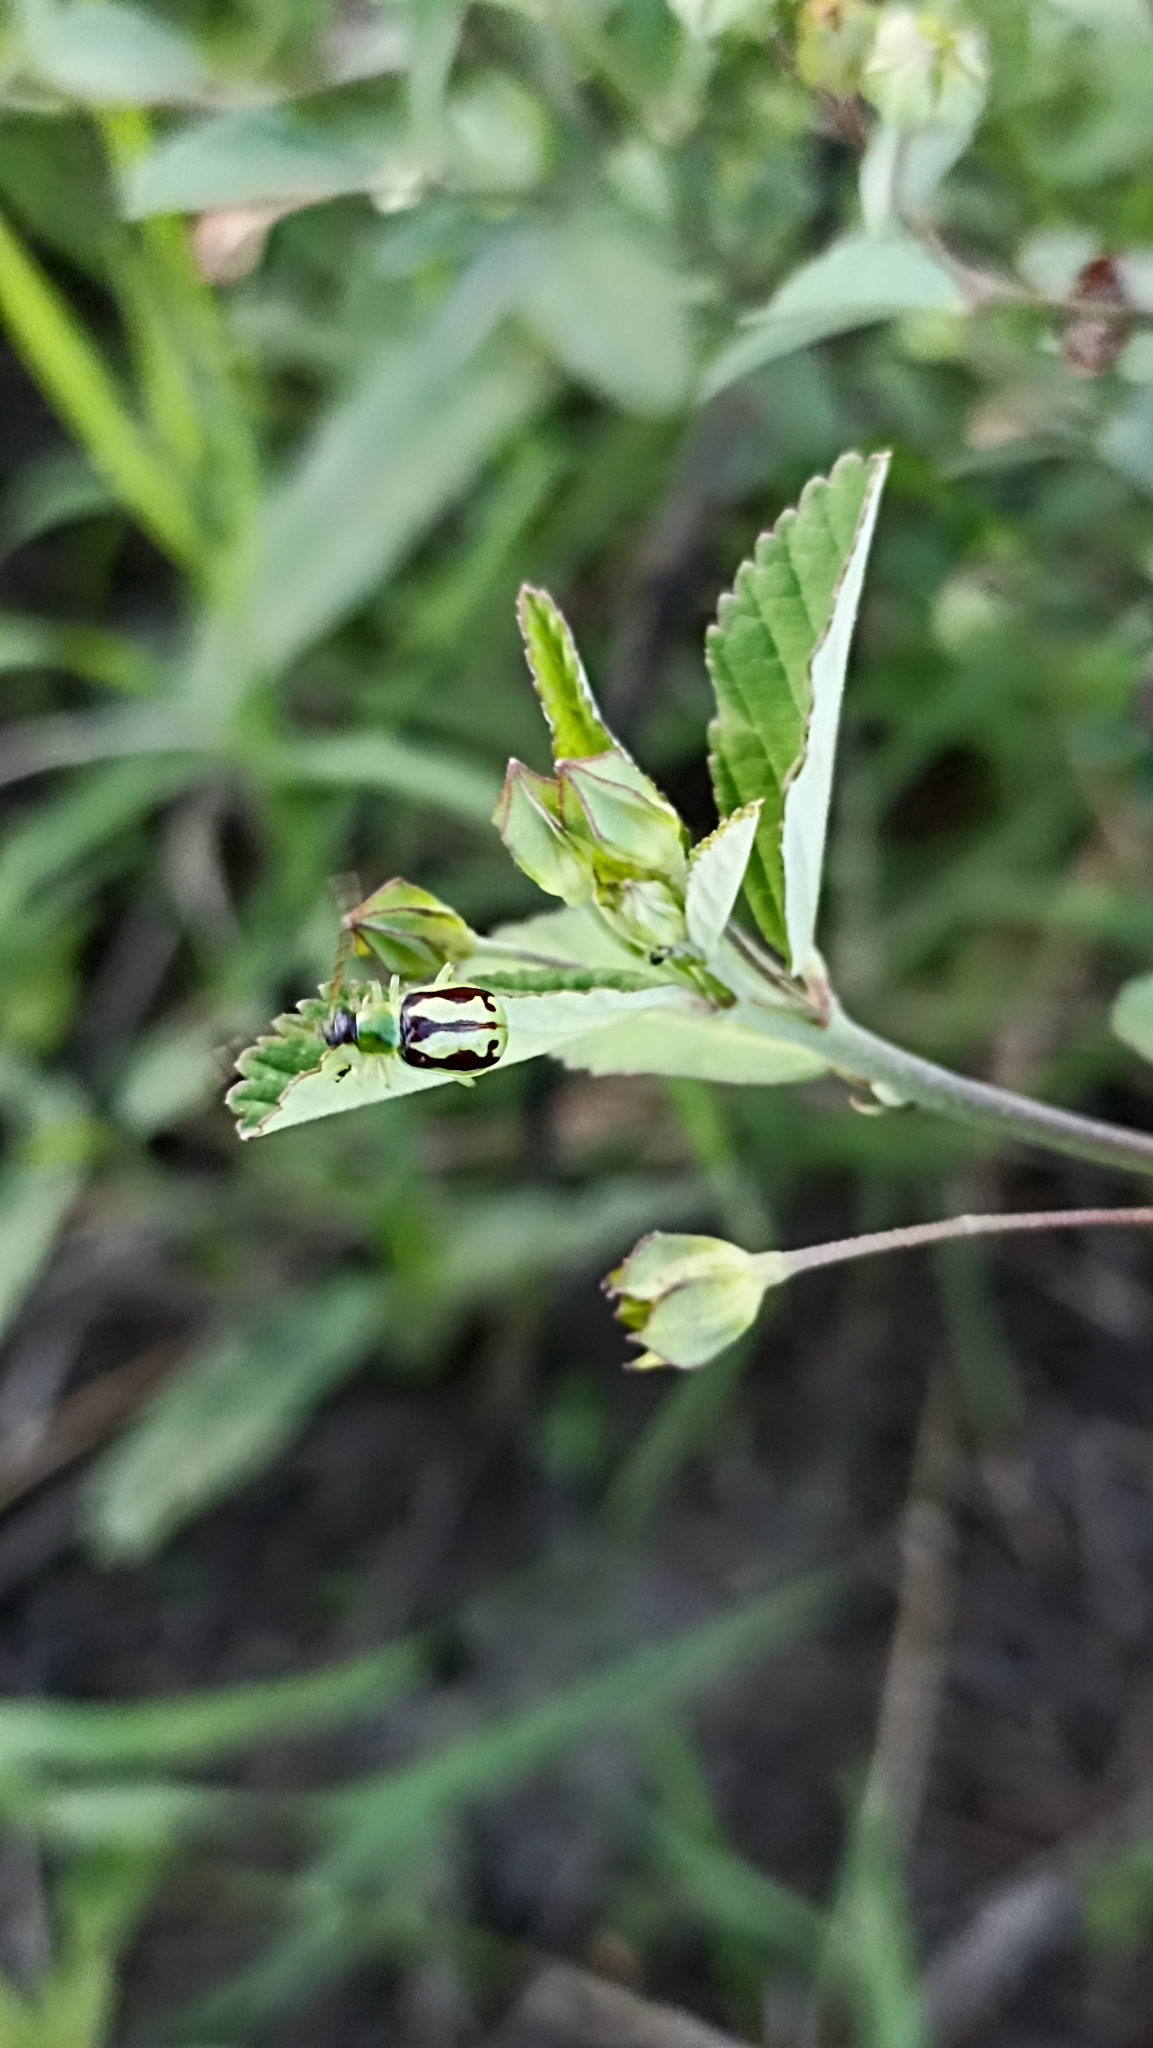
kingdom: Animalia
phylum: Arthropoda
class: Insecta
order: Coleoptera
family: Chrysomelidae
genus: Basiprionota
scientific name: Basiprionota sinuata
